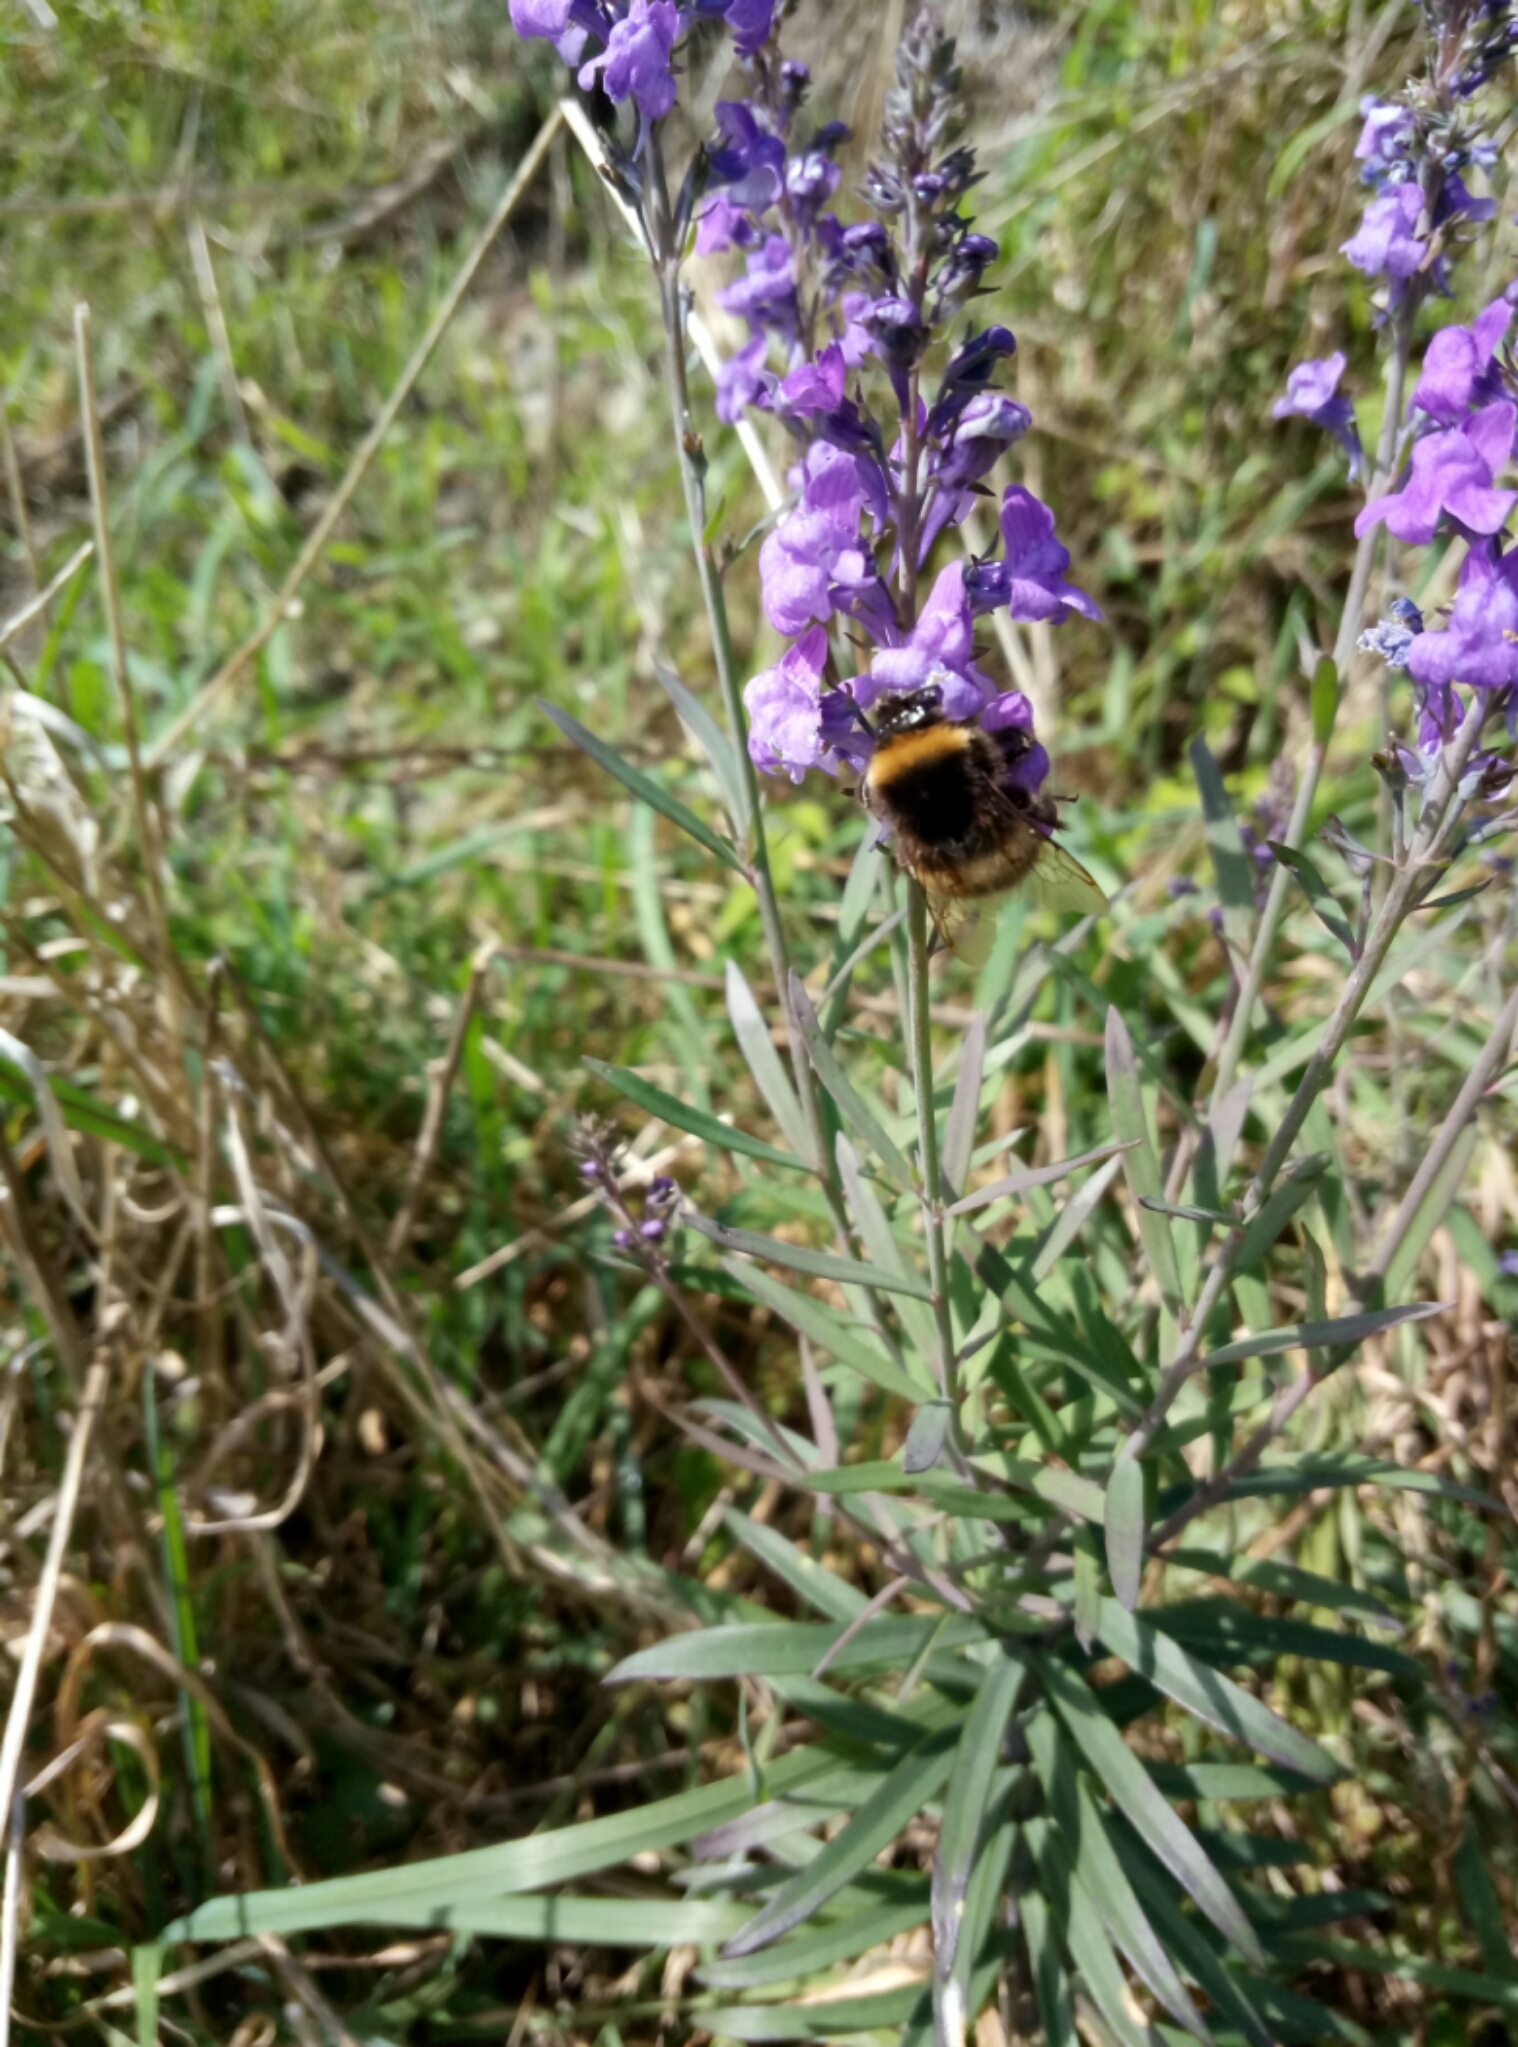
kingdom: Animalia
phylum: Arthropoda
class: Insecta
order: Hymenoptera
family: Apidae
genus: Bombus
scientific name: Bombus terrestris
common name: Buff-tailed bumblebee
